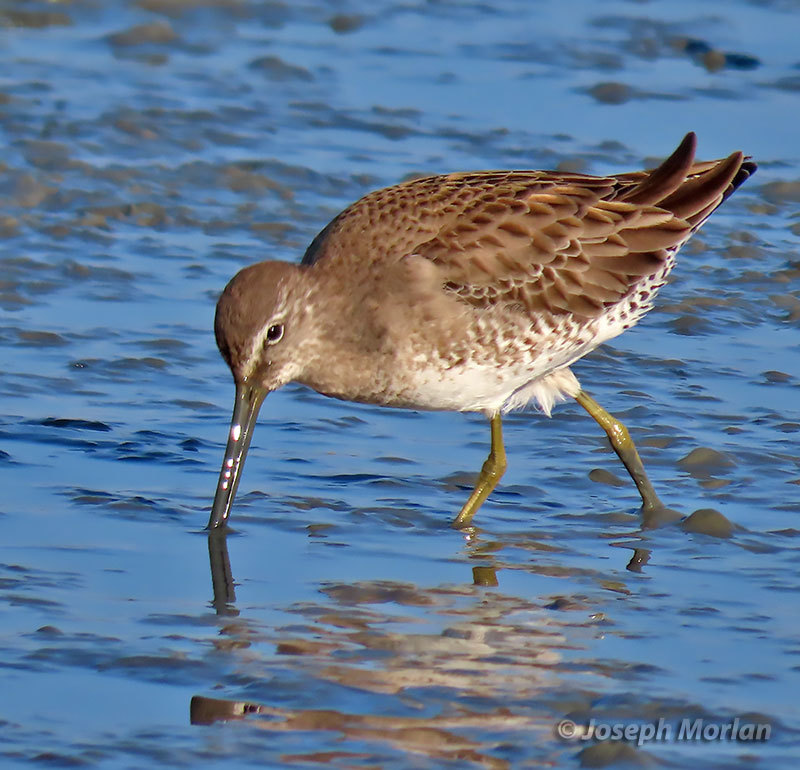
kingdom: Animalia
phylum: Chordata
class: Aves
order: Charadriiformes
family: Scolopacidae
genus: Limnodromus
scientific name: Limnodromus scolopaceus
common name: Long-billed dowitcher
